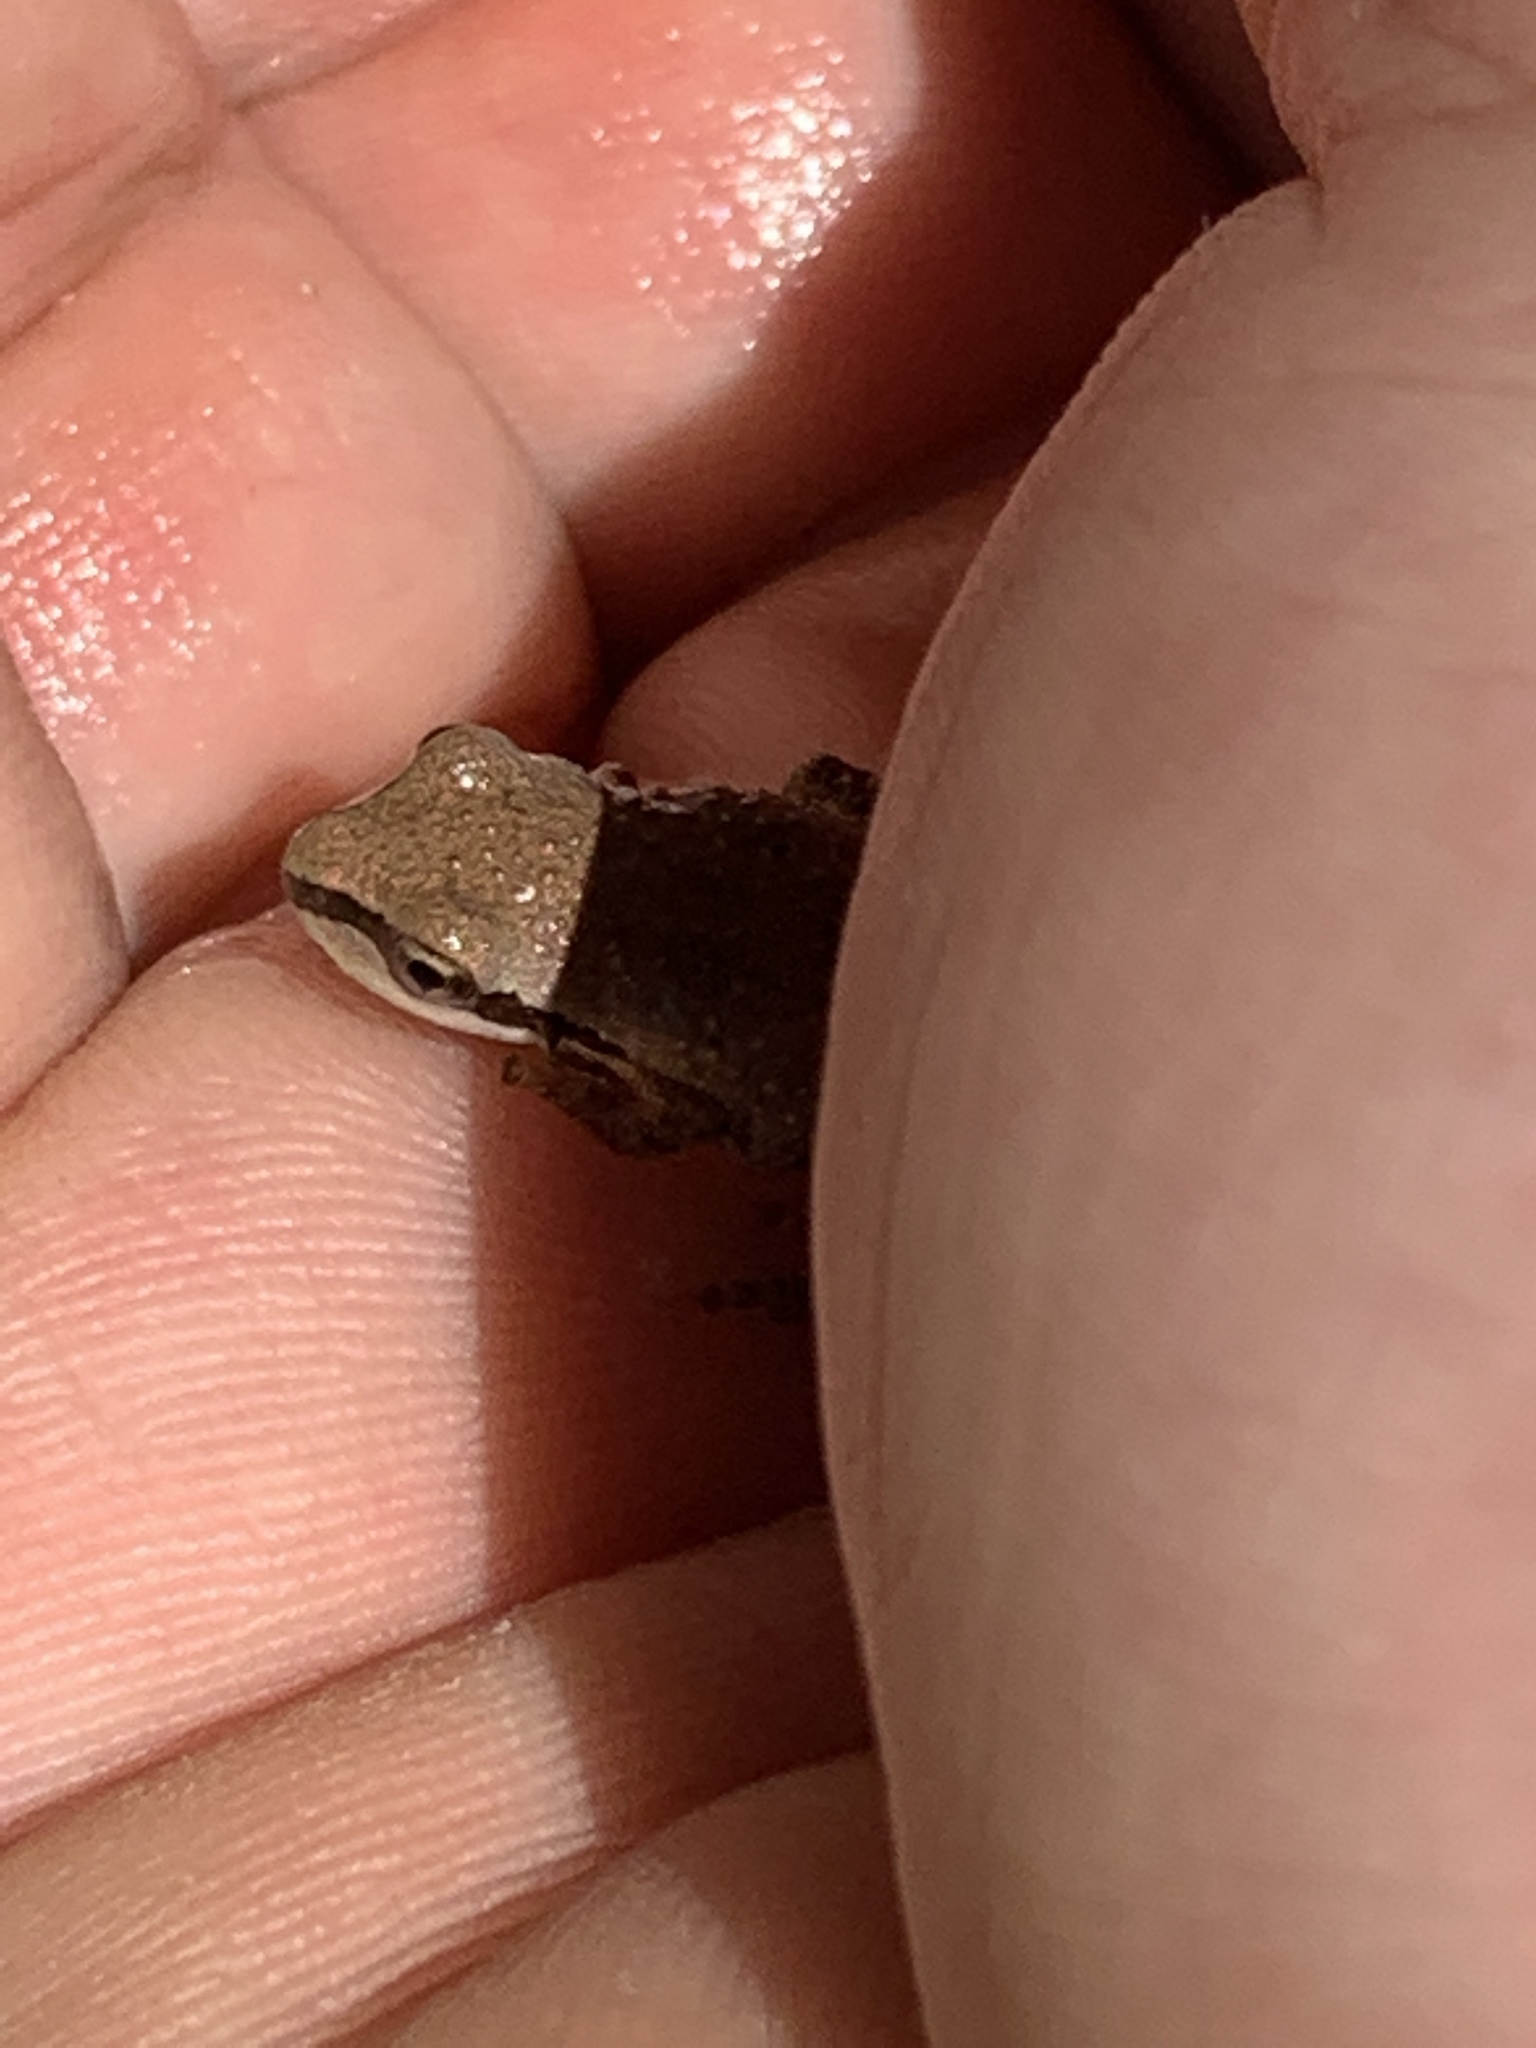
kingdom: Animalia
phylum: Chordata
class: Amphibia
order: Anura
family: Hylidae
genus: Pseudacris
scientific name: Pseudacris regilla
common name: Pacific chorus frog
